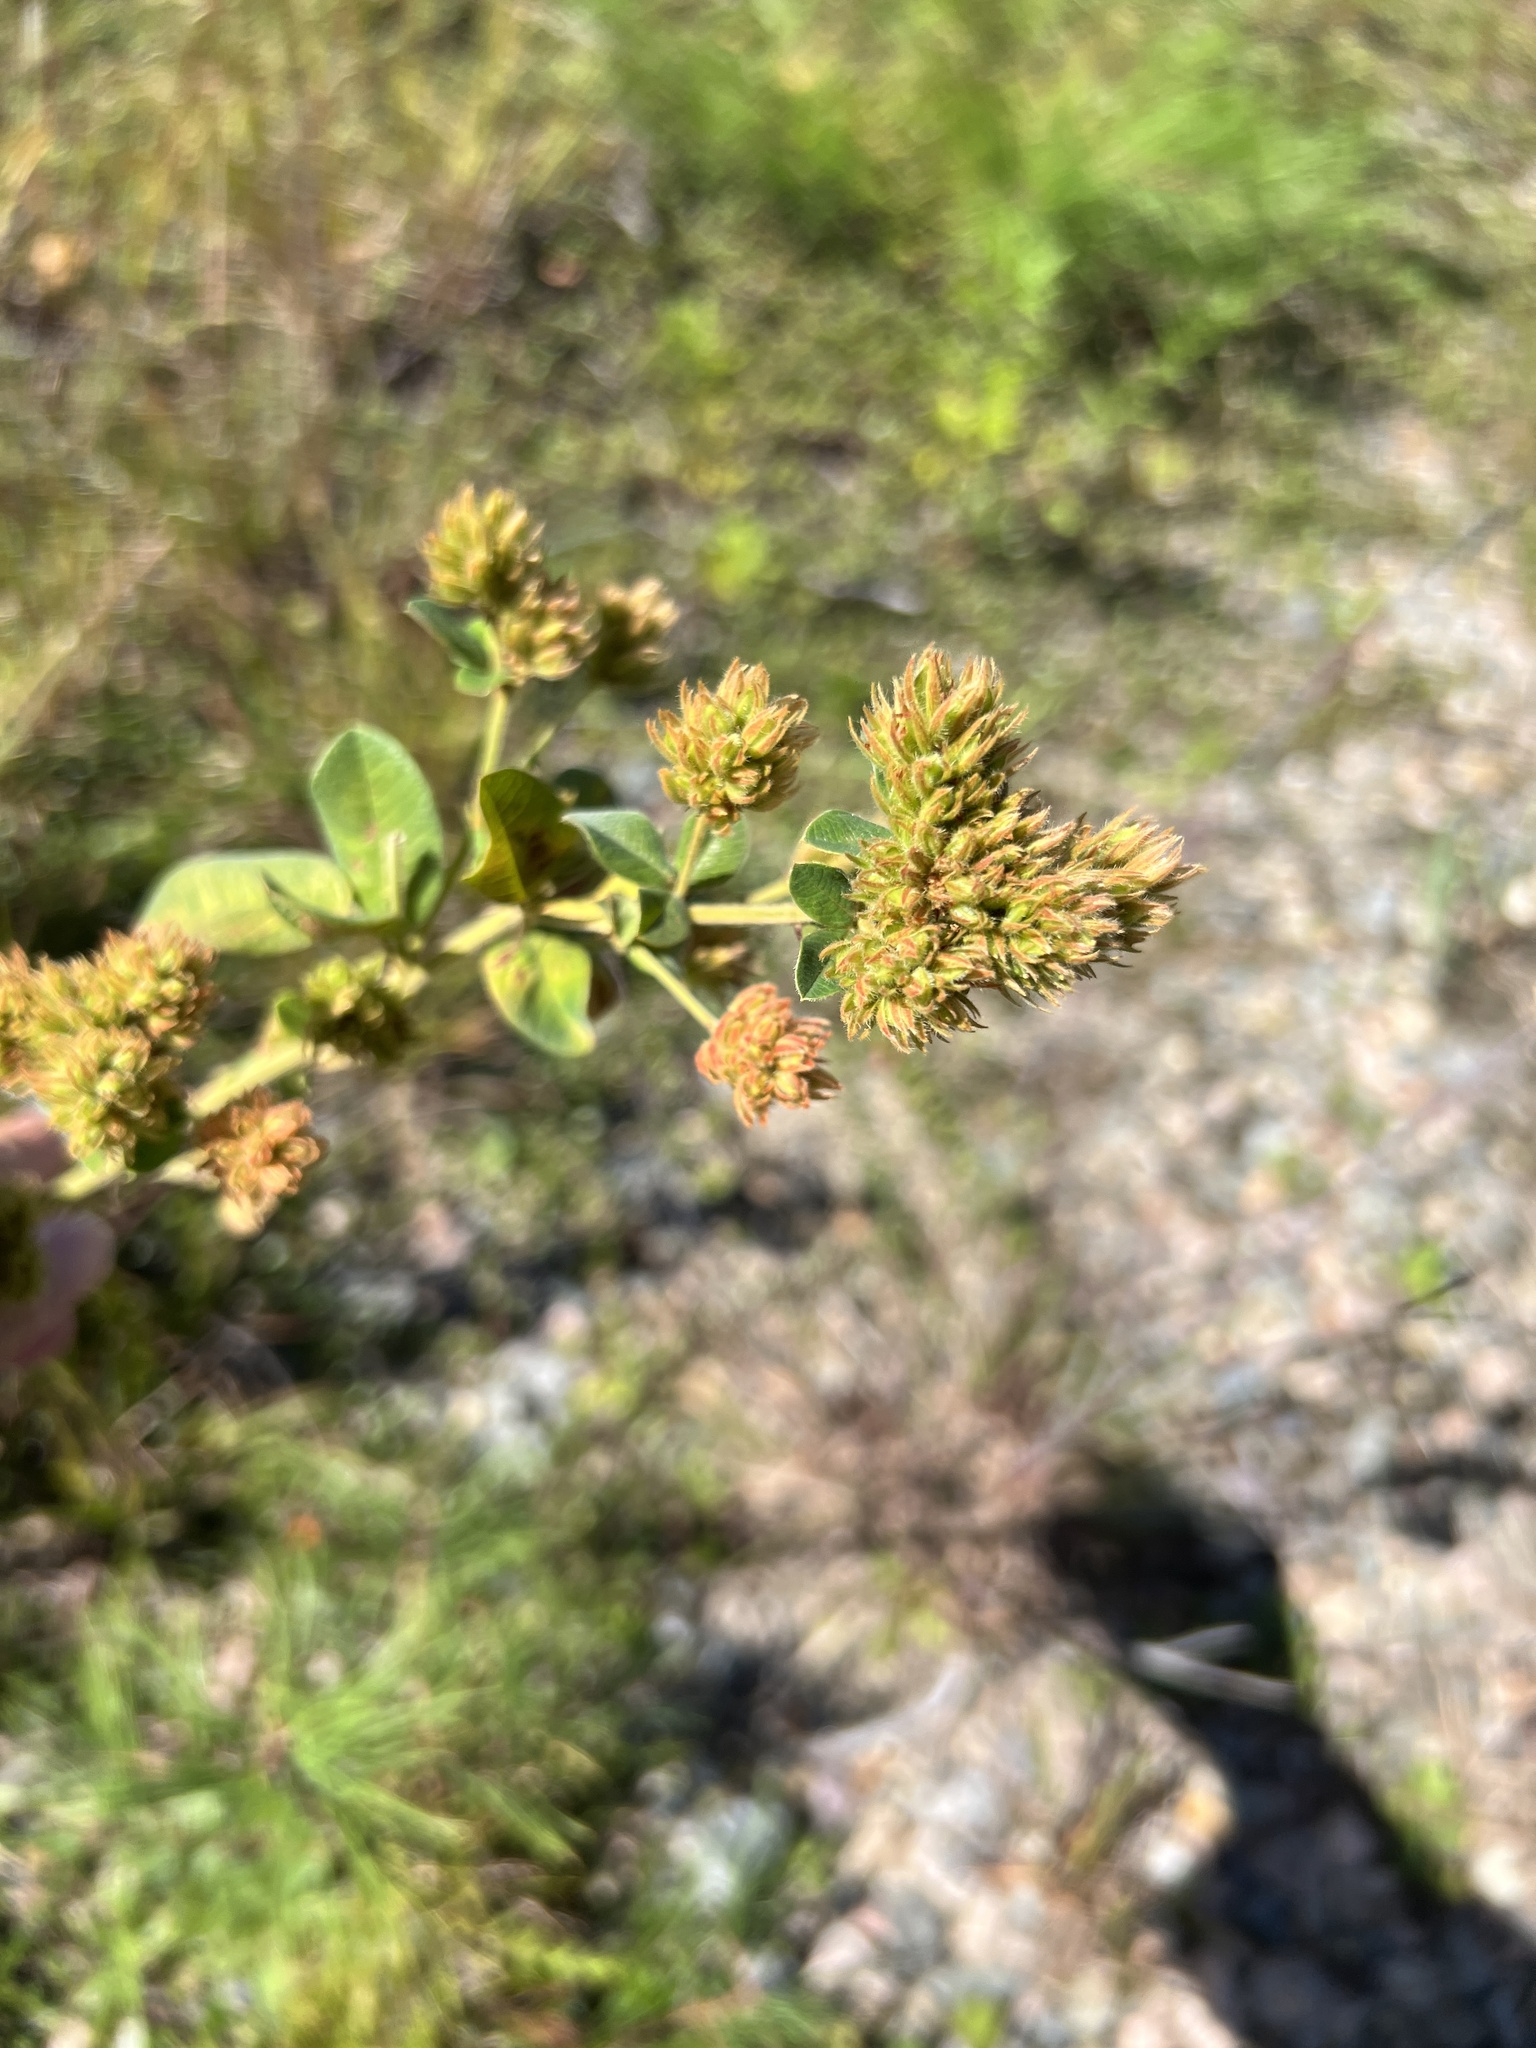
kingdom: Plantae
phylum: Tracheophyta
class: Magnoliopsida
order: Fabales
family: Fabaceae
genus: Lespedeza
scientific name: Lespedeza hirta
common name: Hairy lespedeza
